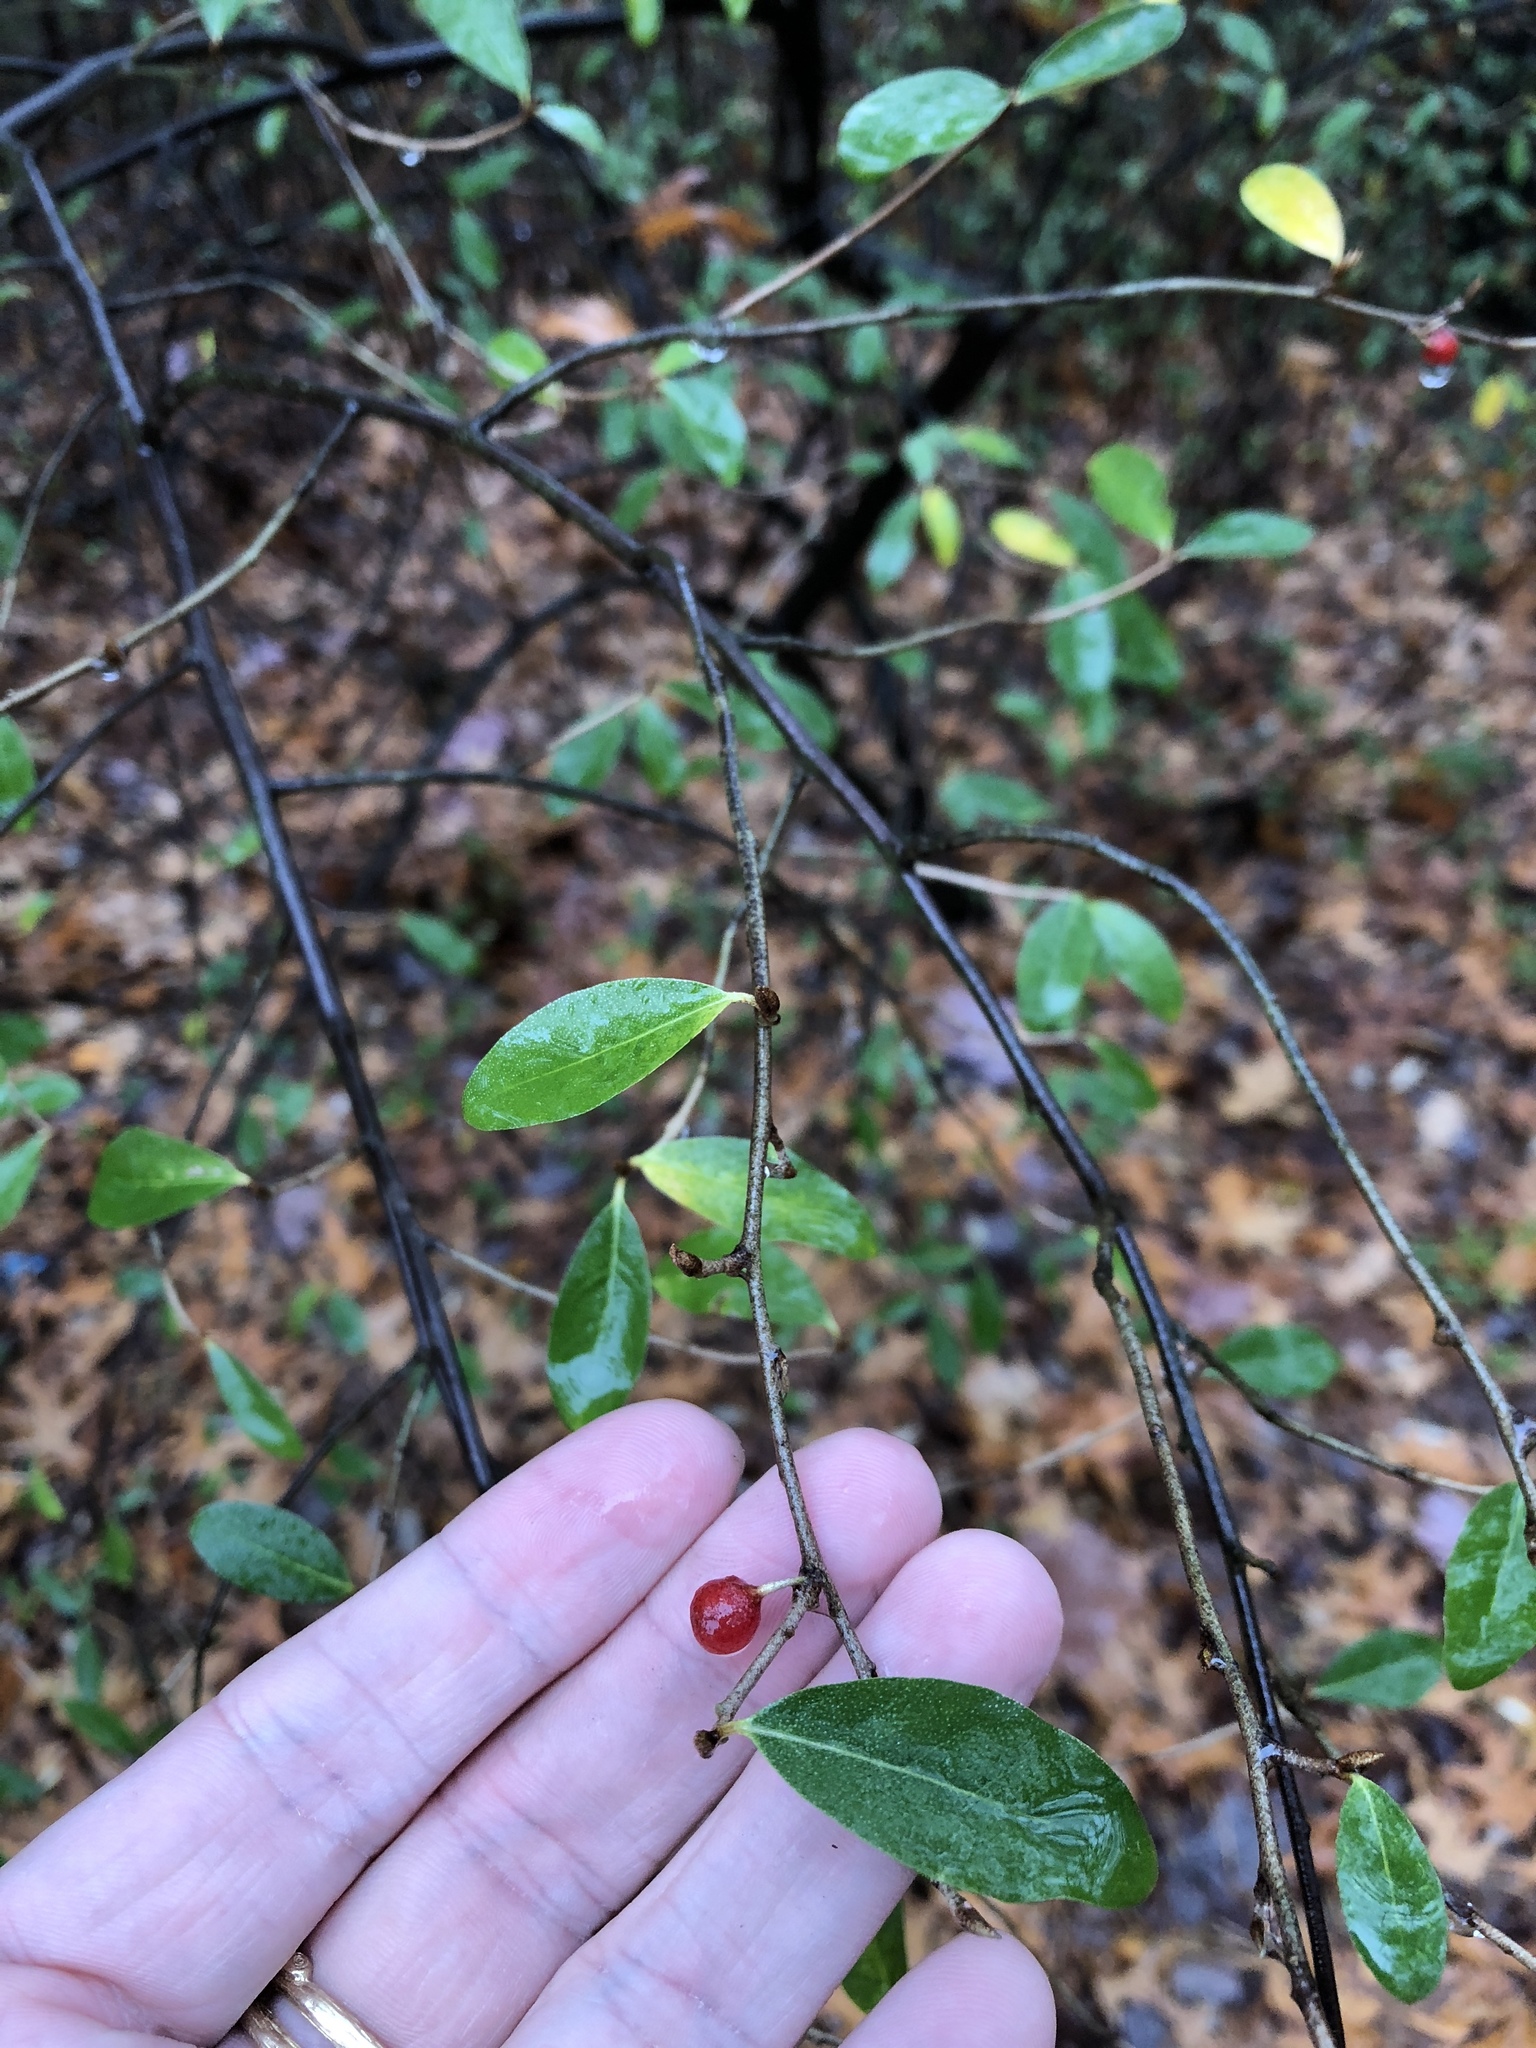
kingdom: Plantae
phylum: Tracheophyta
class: Magnoliopsida
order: Rosales
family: Elaeagnaceae
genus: Elaeagnus
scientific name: Elaeagnus umbellata
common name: Autumn olive
